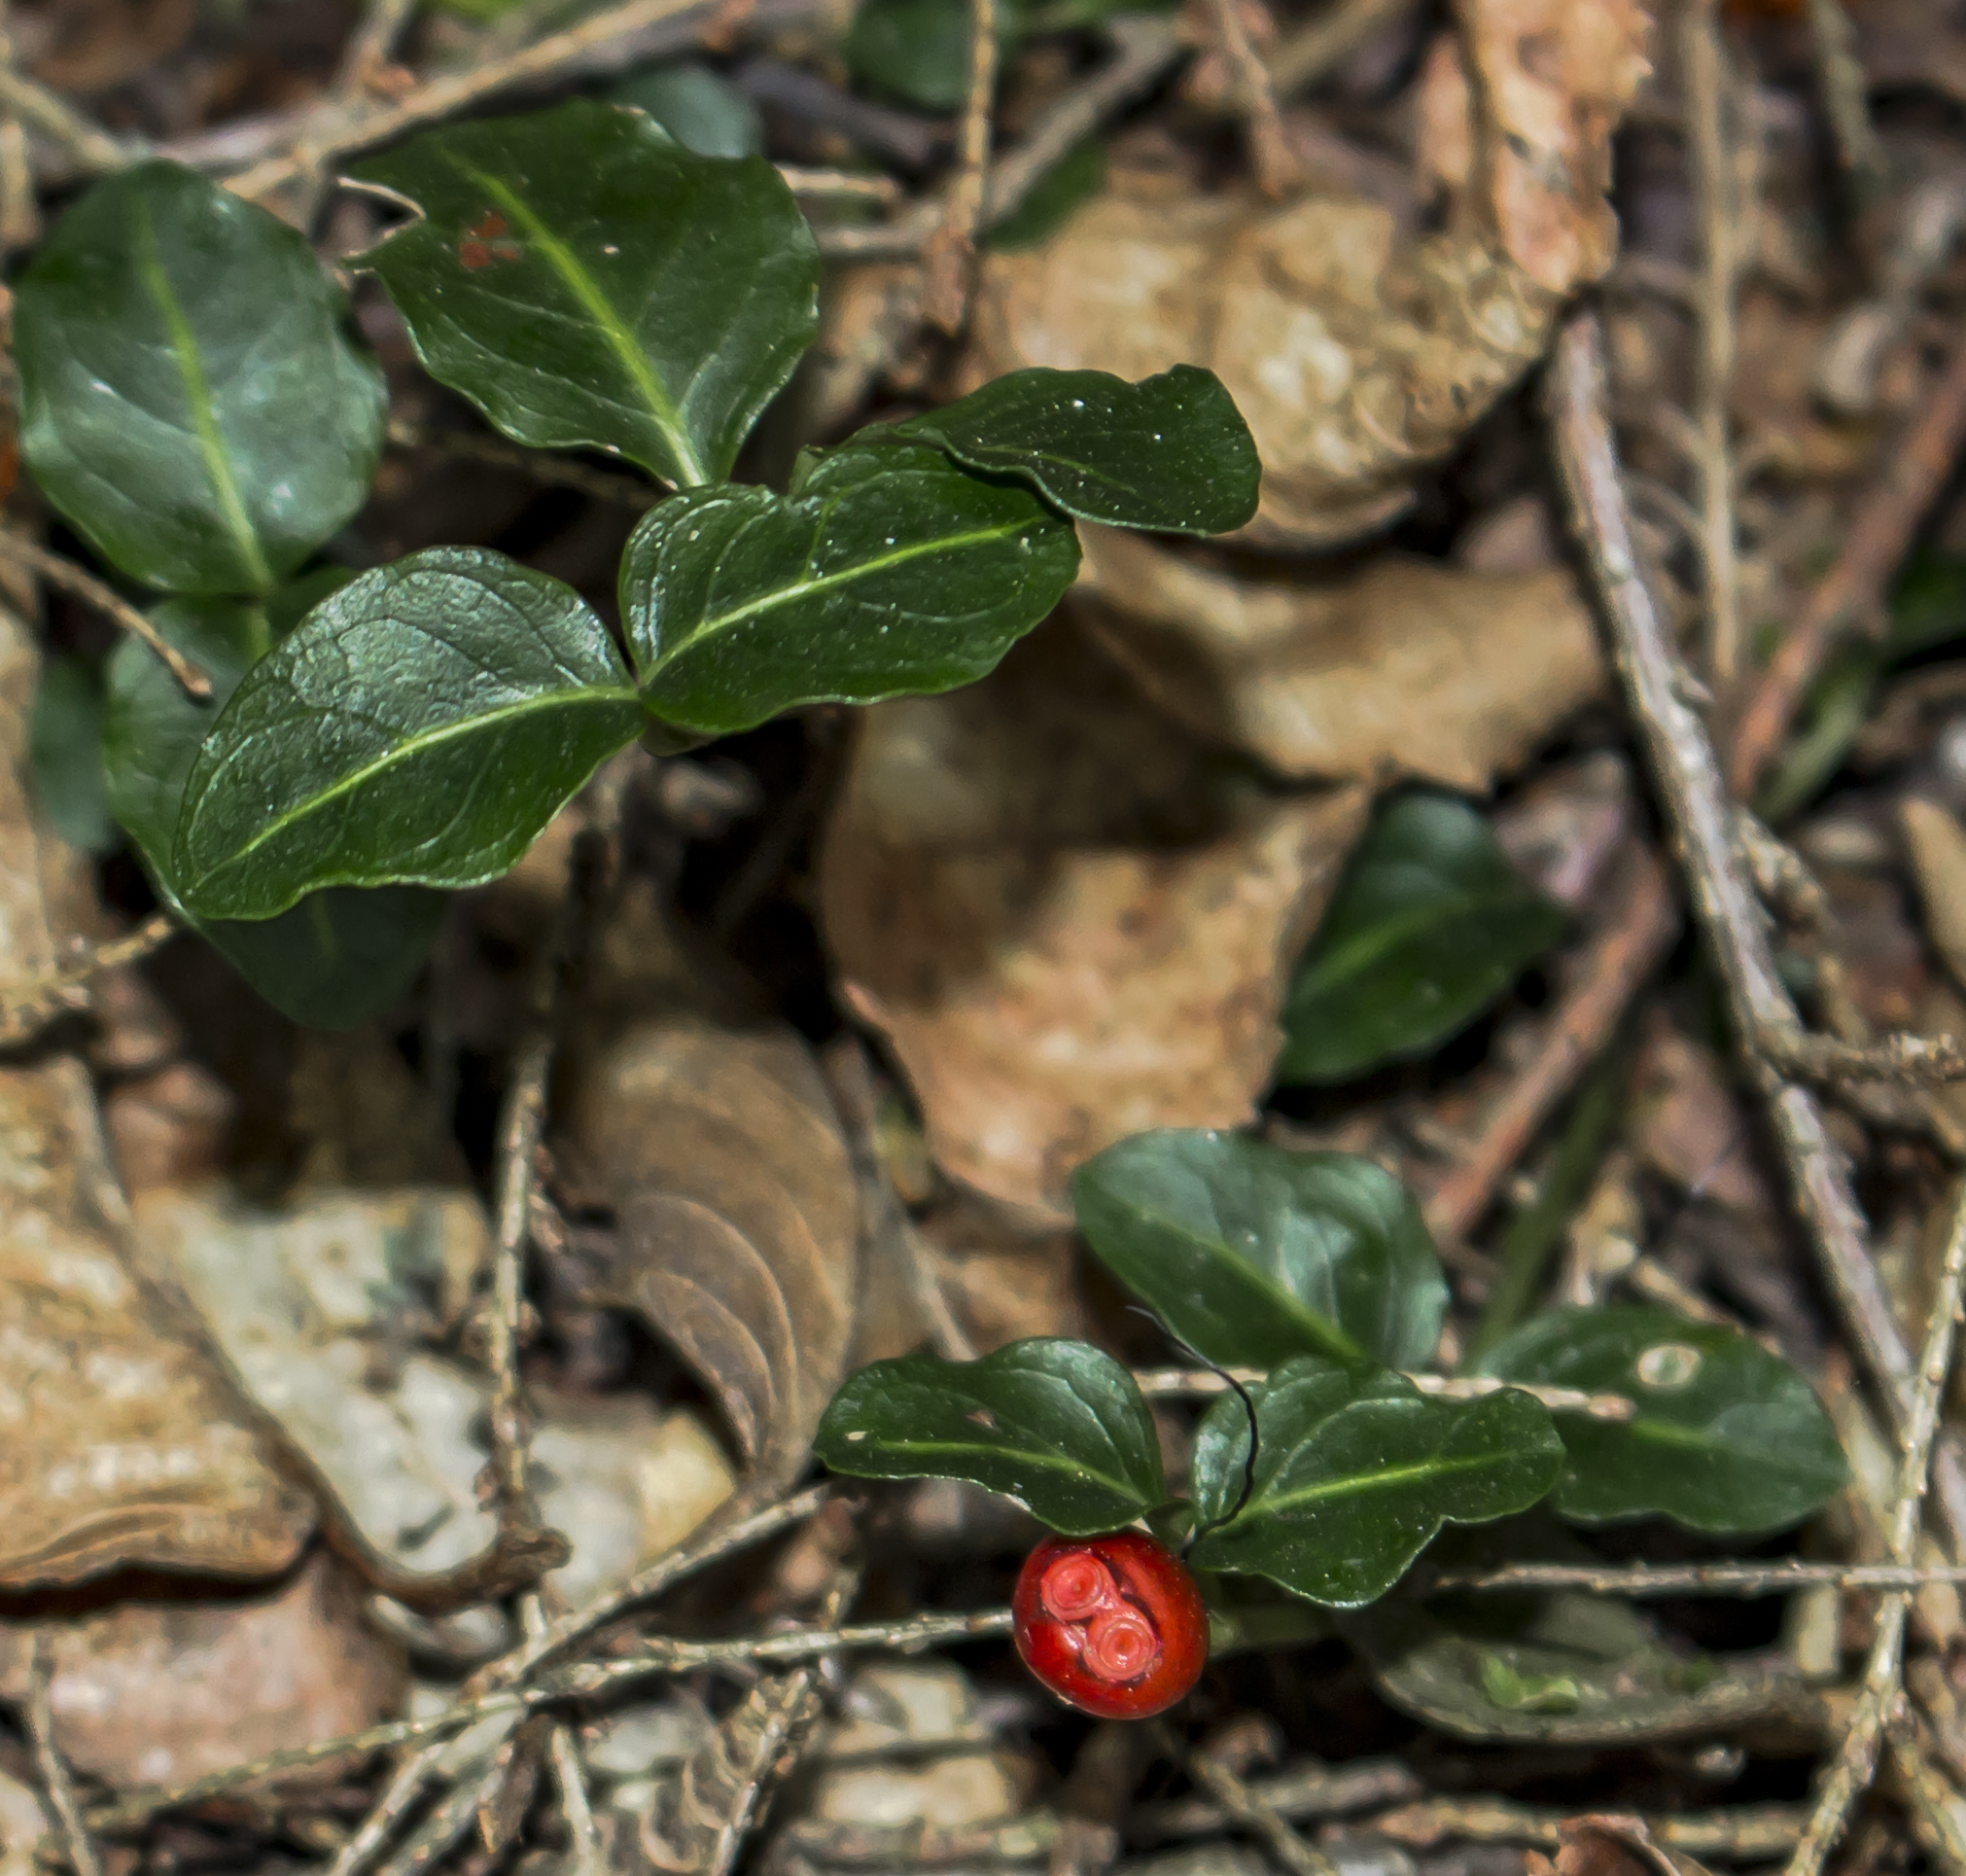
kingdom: Plantae
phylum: Tracheophyta
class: Magnoliopsida
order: Gentianales
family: Rubiaceae
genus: Mitchella
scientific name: Mitchella repens
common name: Partridge-berry
